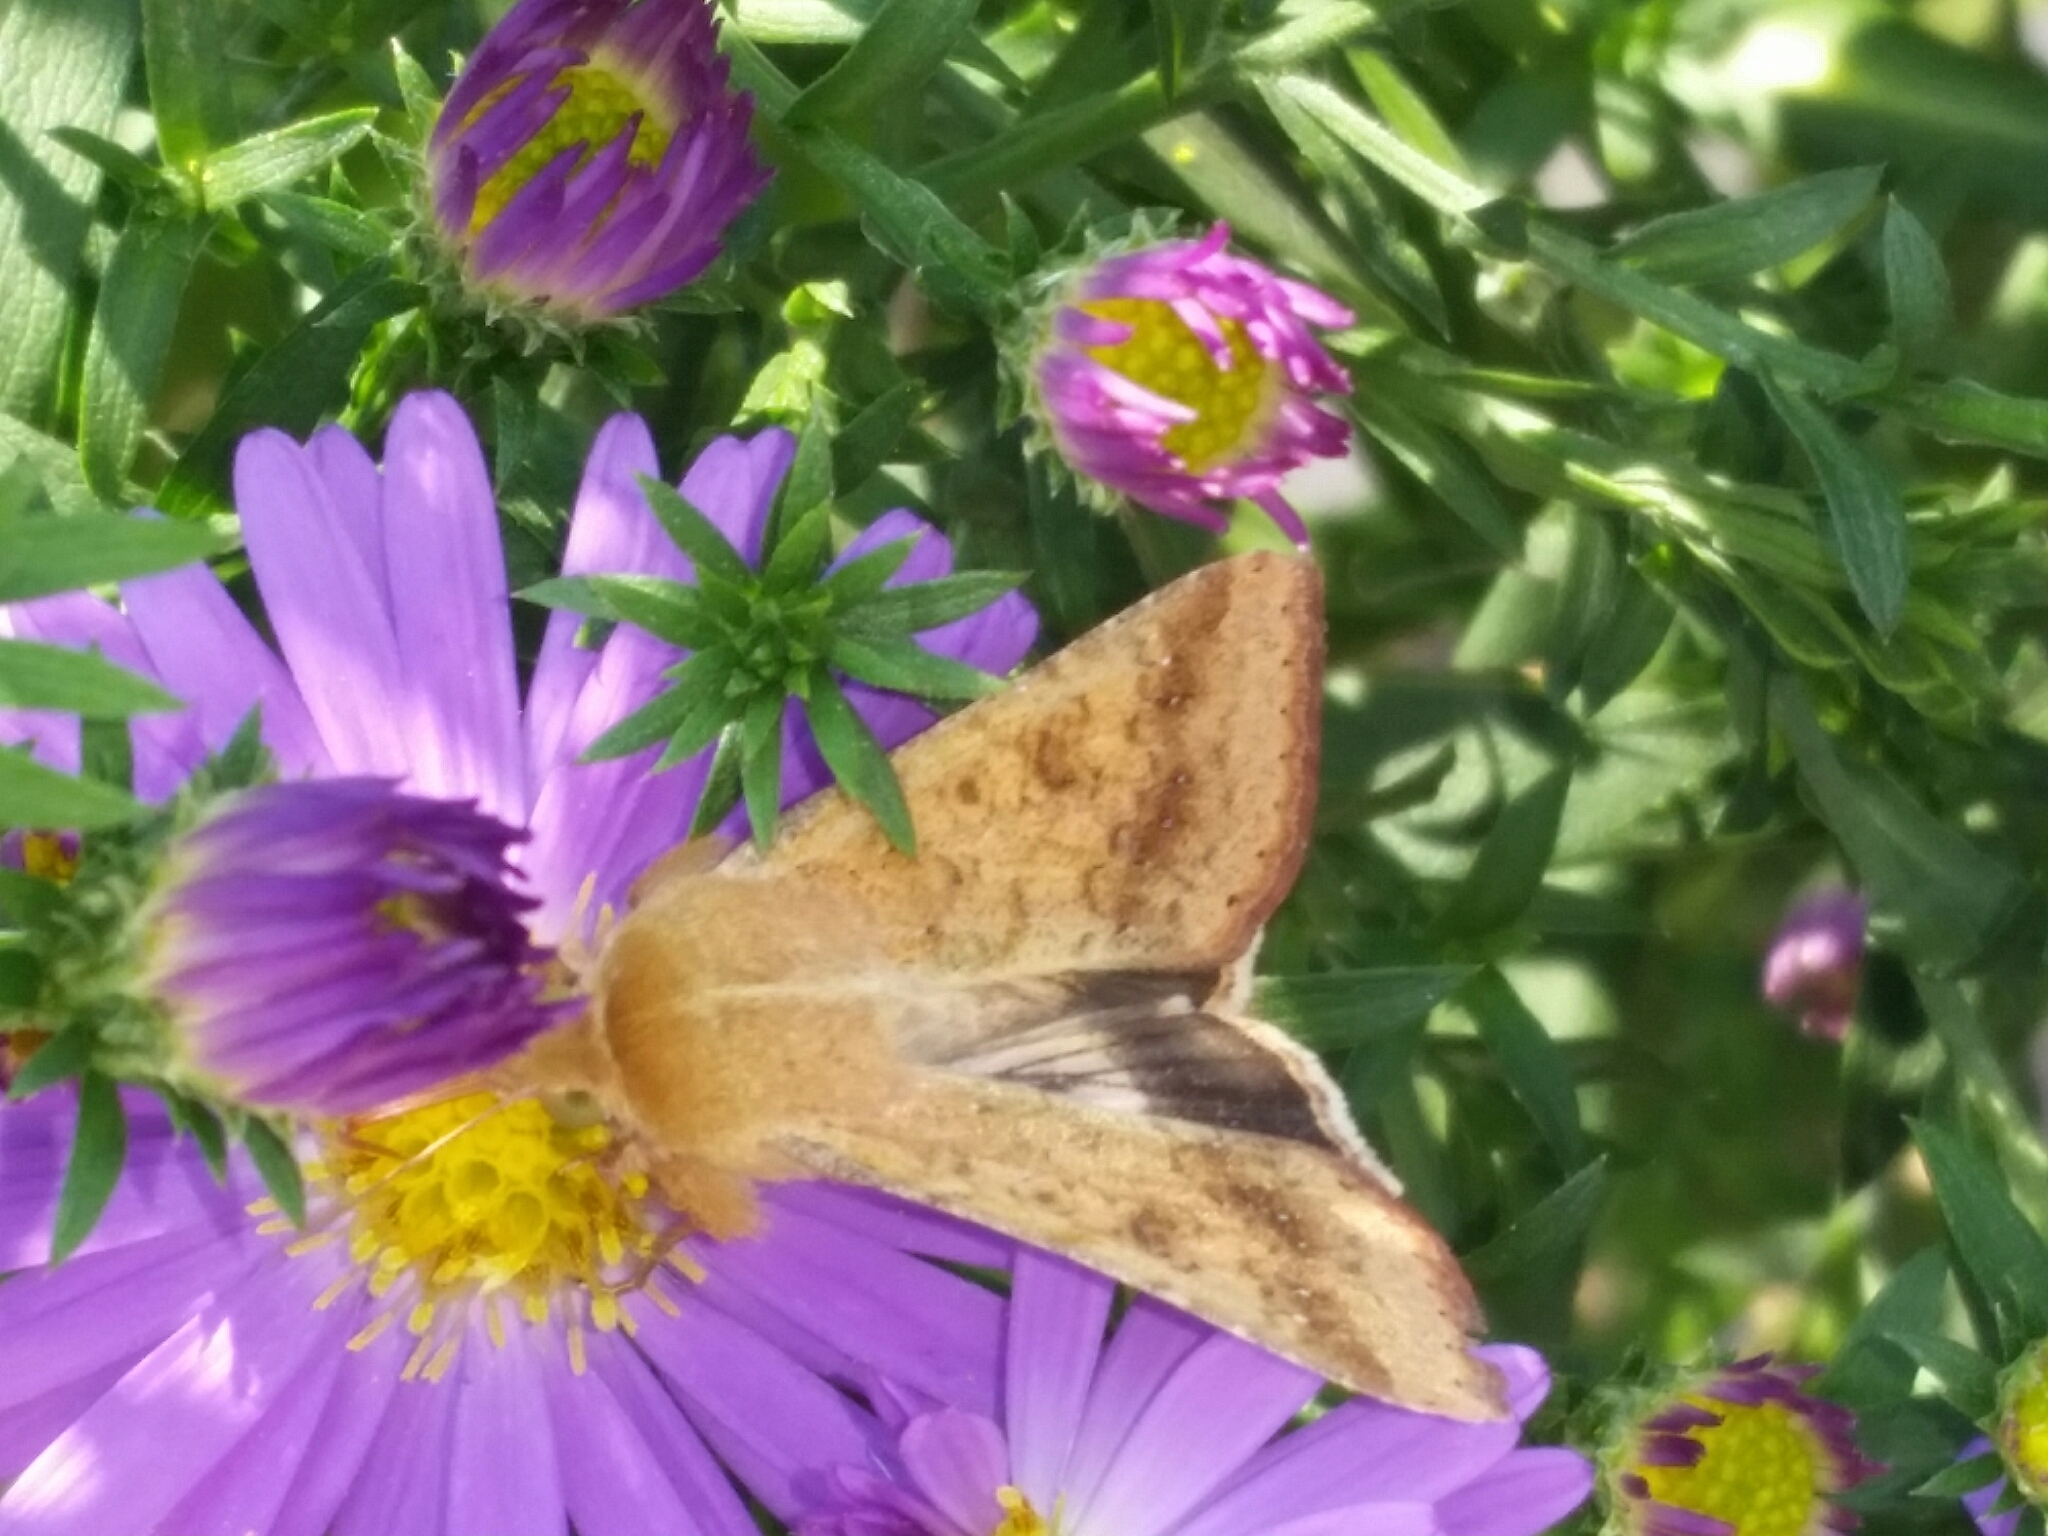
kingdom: Animalia
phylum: Arthropoda
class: Insecta
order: Lepidoptera
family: Noctuidae
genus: Helicoverpa
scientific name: Helicoverpa armigera
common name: Cotton bollworm
